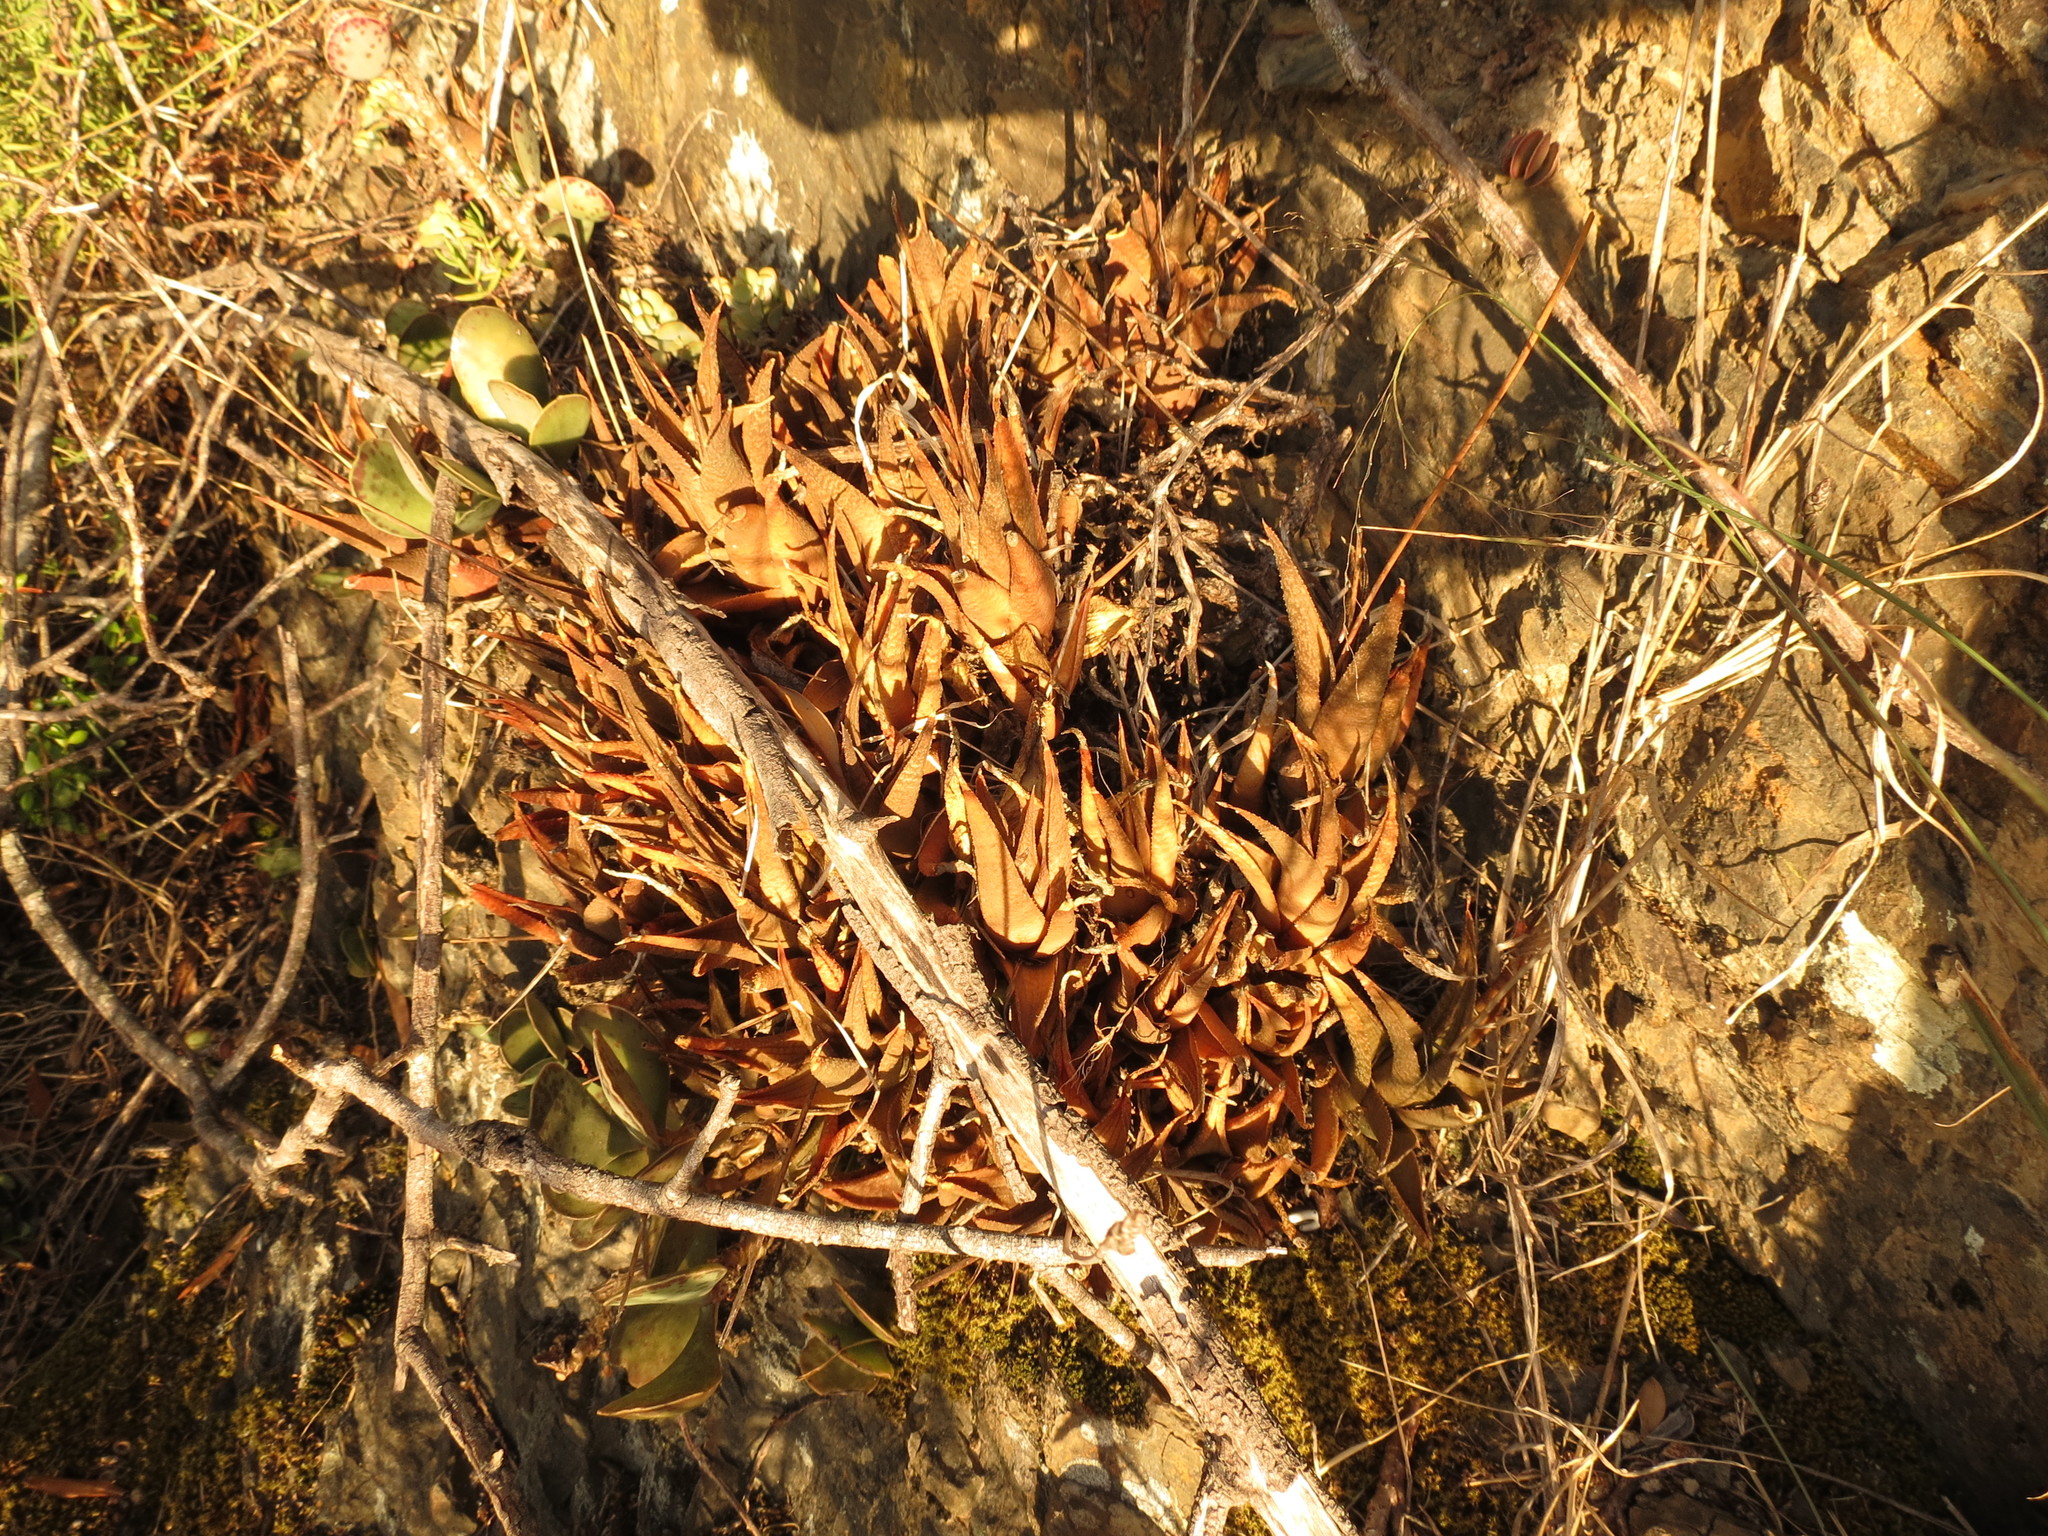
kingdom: Plantae
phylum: Tracheophyta
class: Liliopsida
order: Asparagales
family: Asphodelaceae
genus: Haworthiopsis
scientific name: Haworthiopsis venosa
